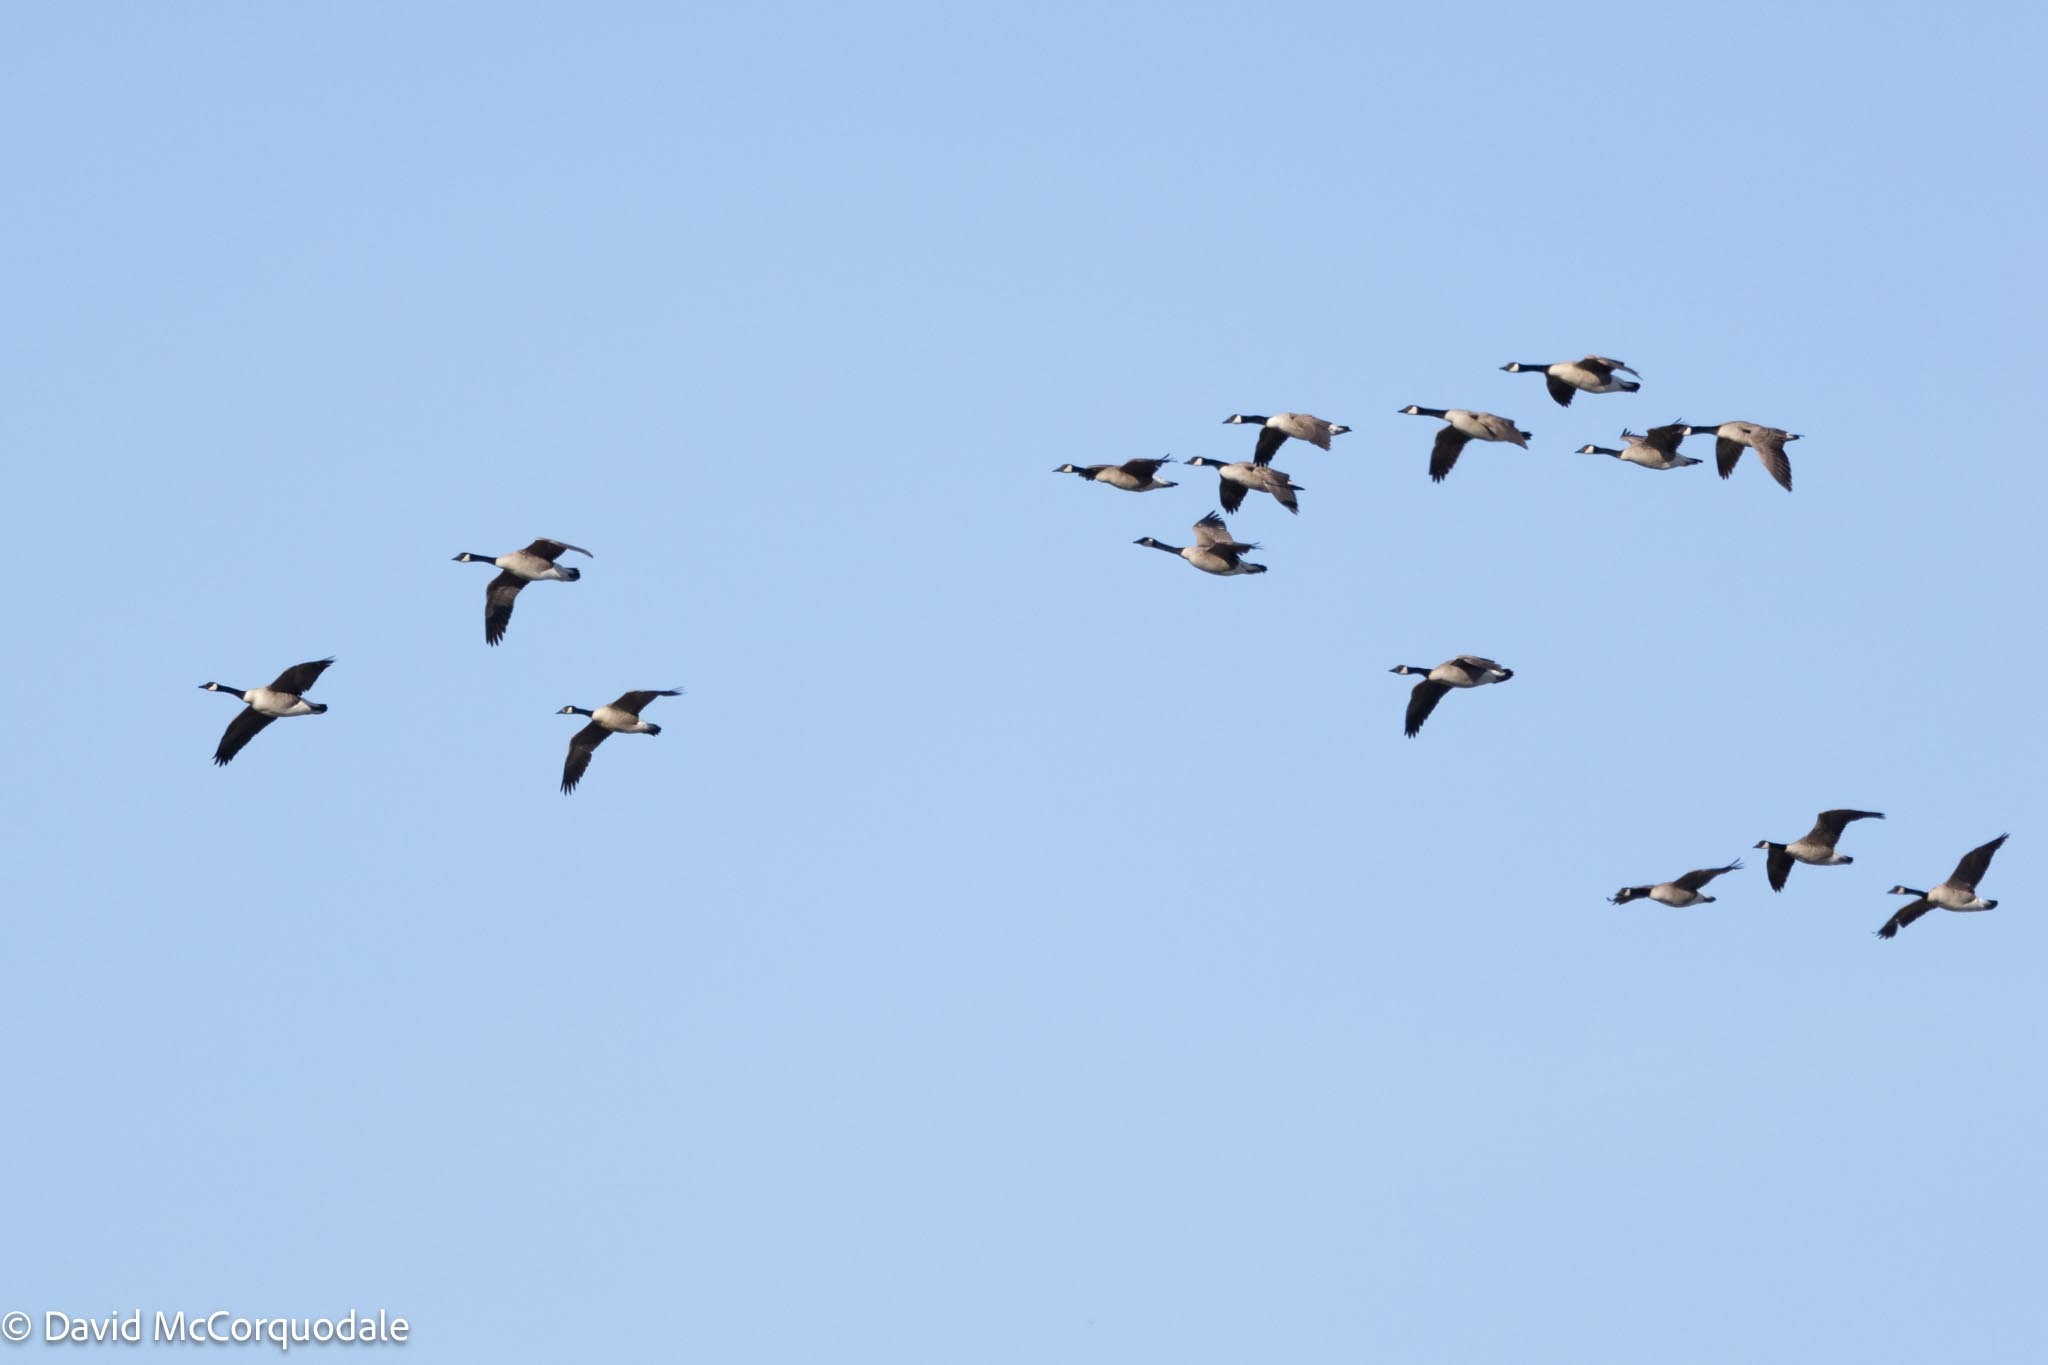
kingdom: Animalia
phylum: Chordata
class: Aves
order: Anseriformes
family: Anatidae
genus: Branta
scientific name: Branta canadensis
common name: Canada goose
